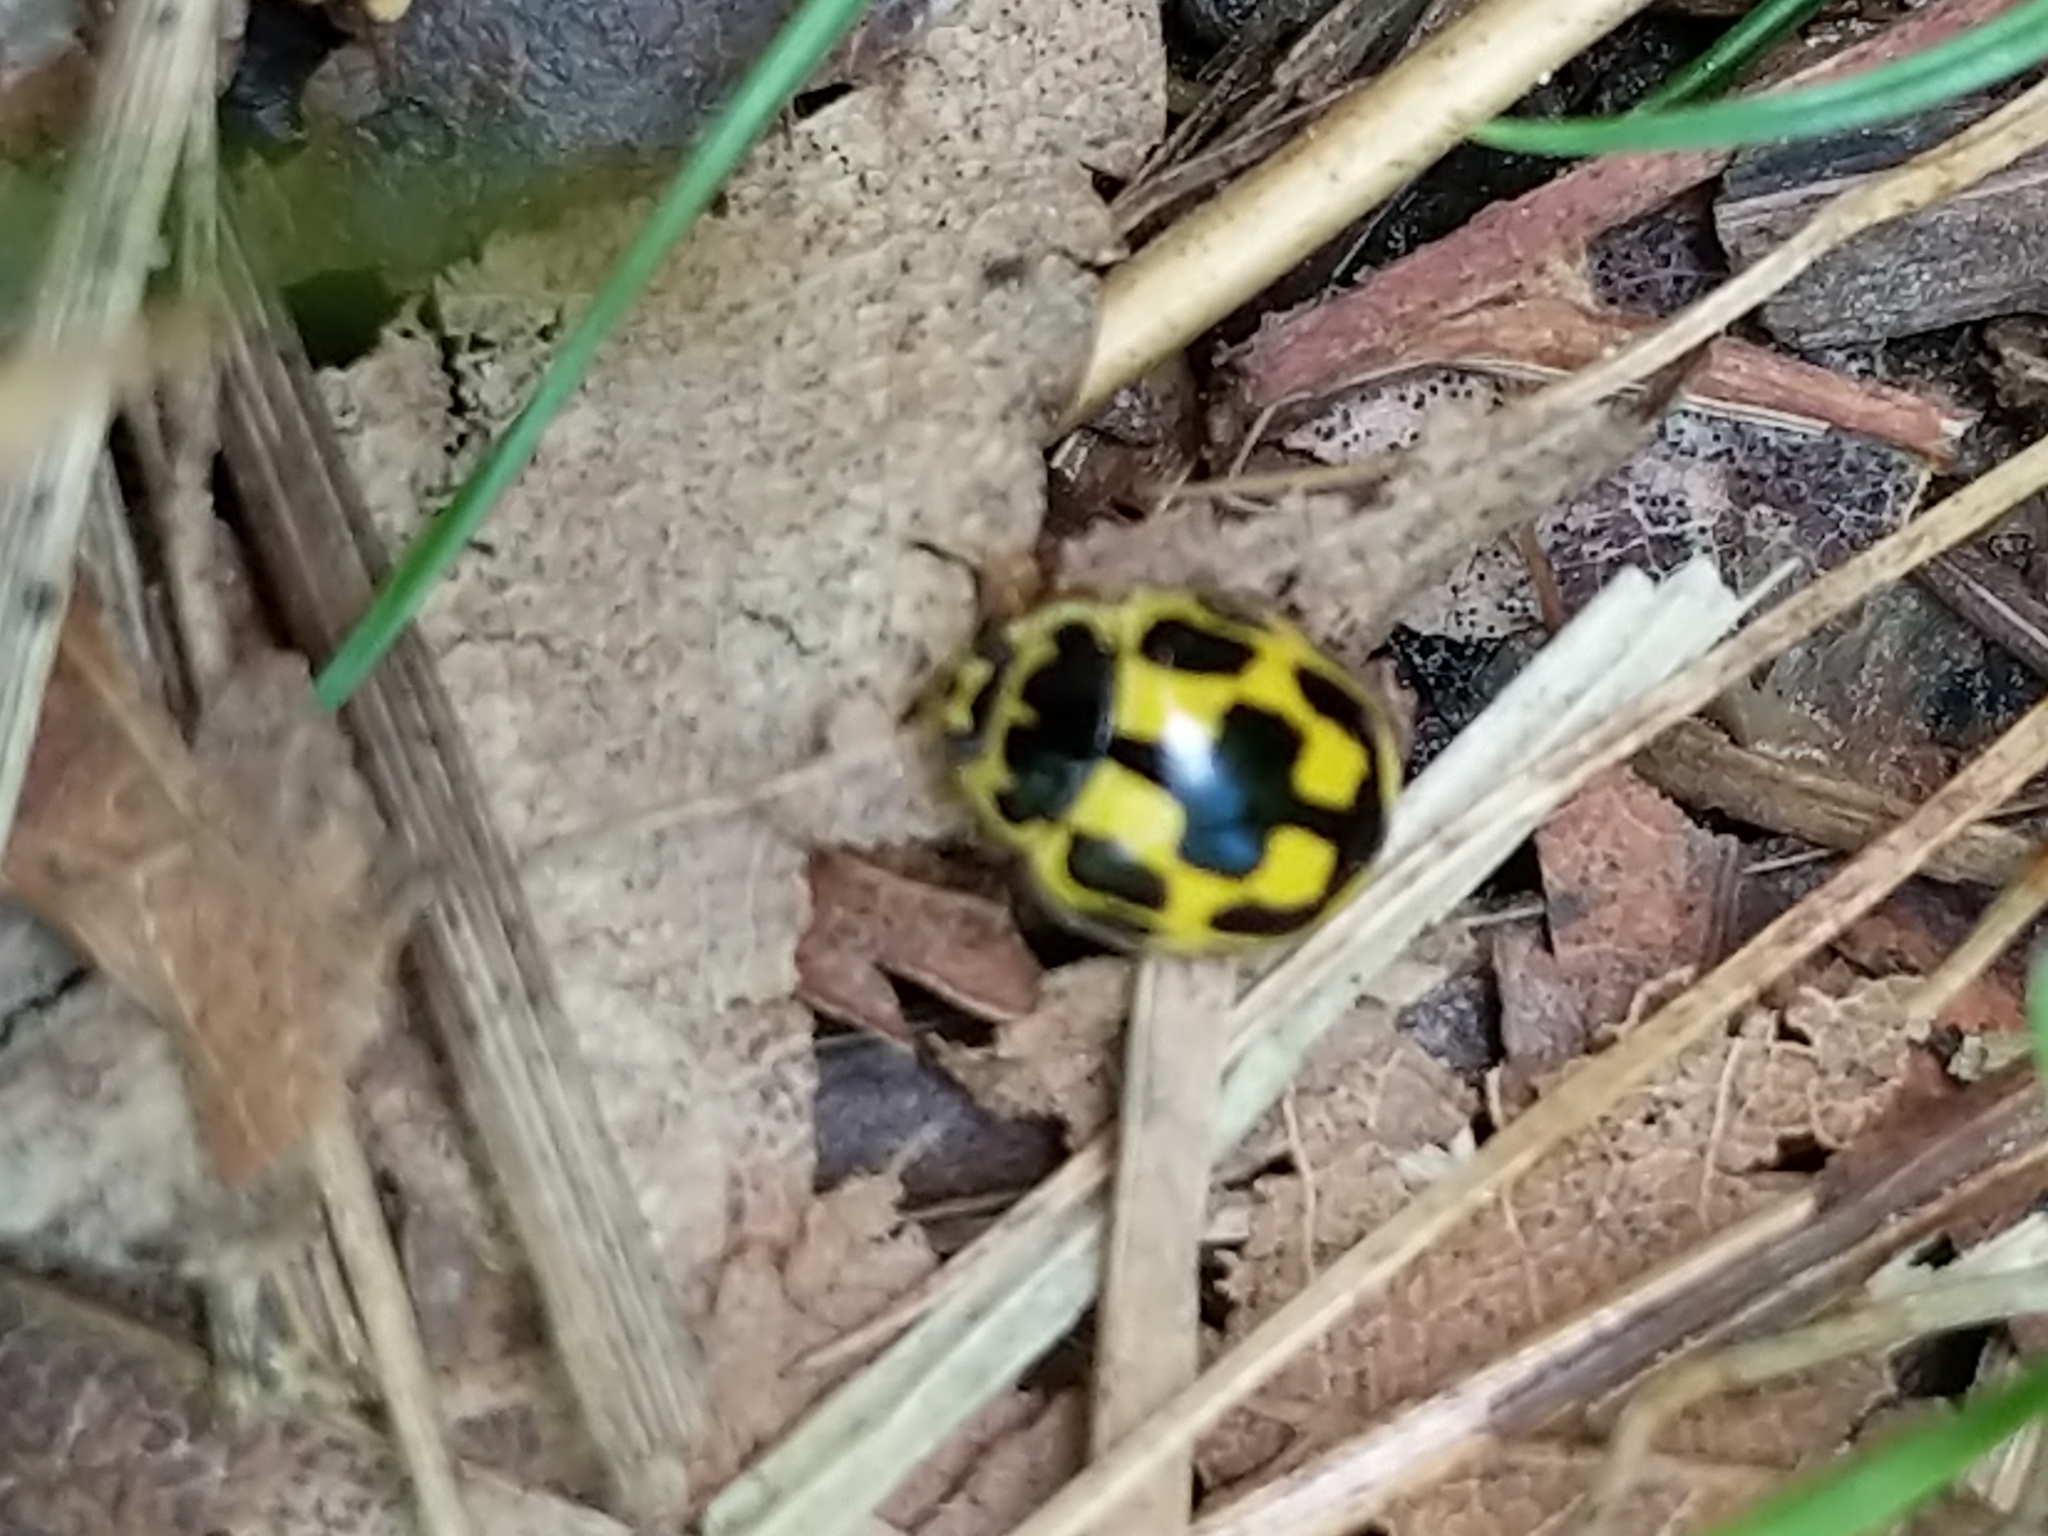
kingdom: Animalia
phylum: Arthropoda
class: Insecta
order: Coleoptera
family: Coccinellidae
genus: Propylaea
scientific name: Propylaea quatuordecimpunctata
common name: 14-spotted ladybird beetle
